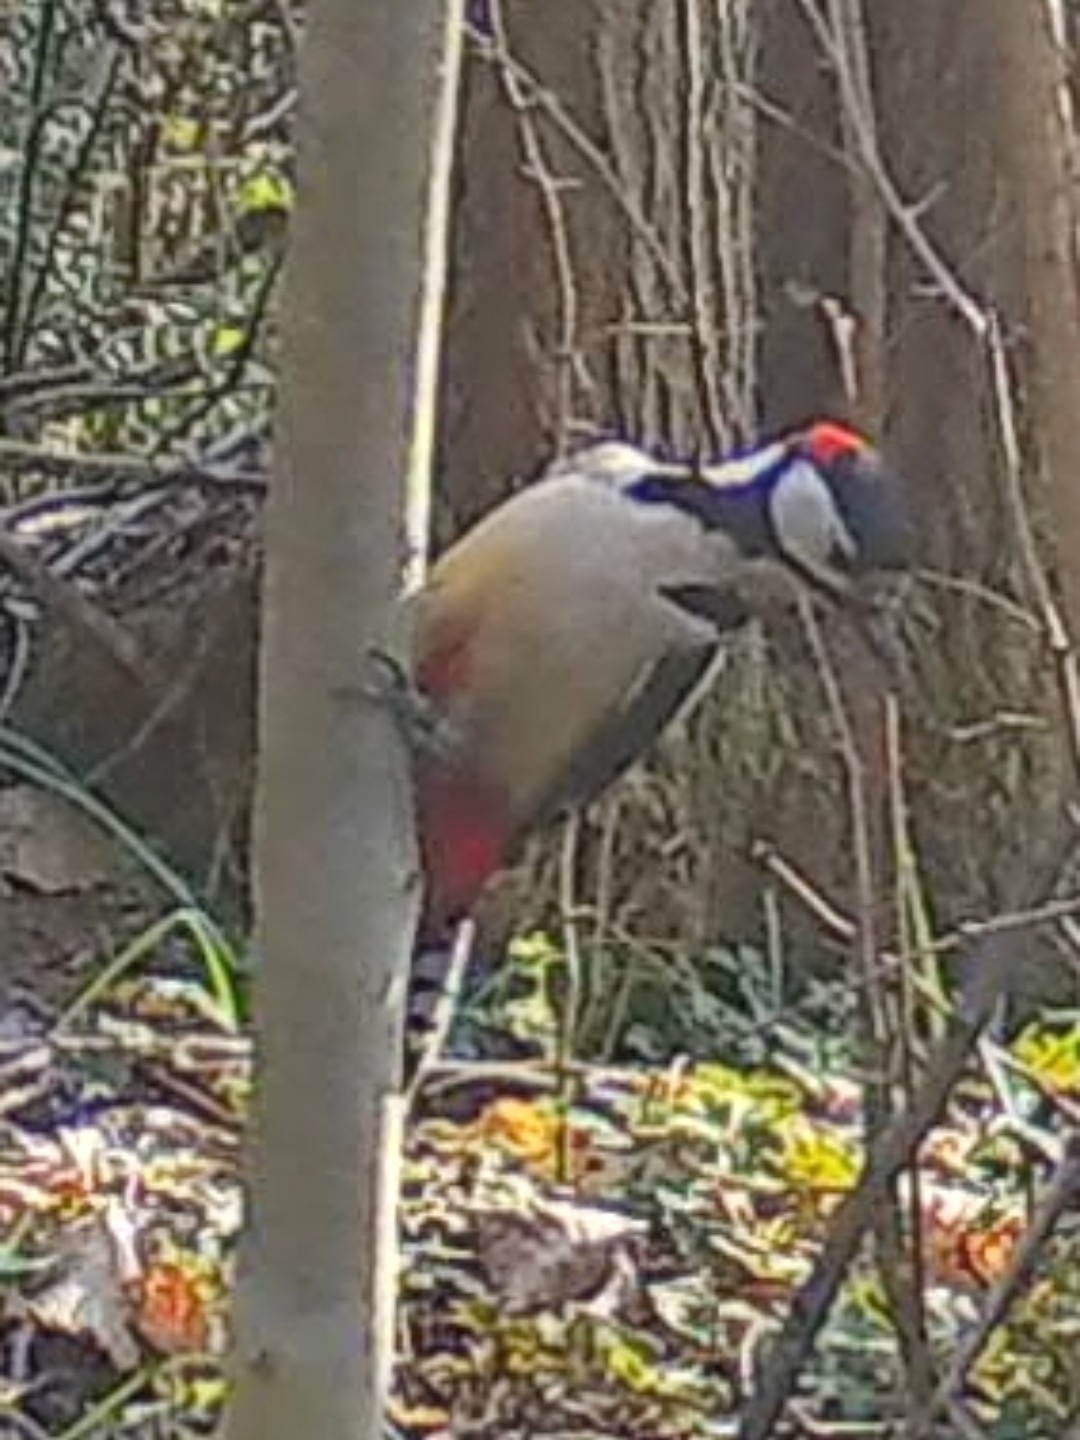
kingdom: Animalia
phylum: Chordata
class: Aves
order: Piciformes
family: Picidae
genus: Dendrocopos
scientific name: Dendrocopos major
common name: Great spotted woodpecker
